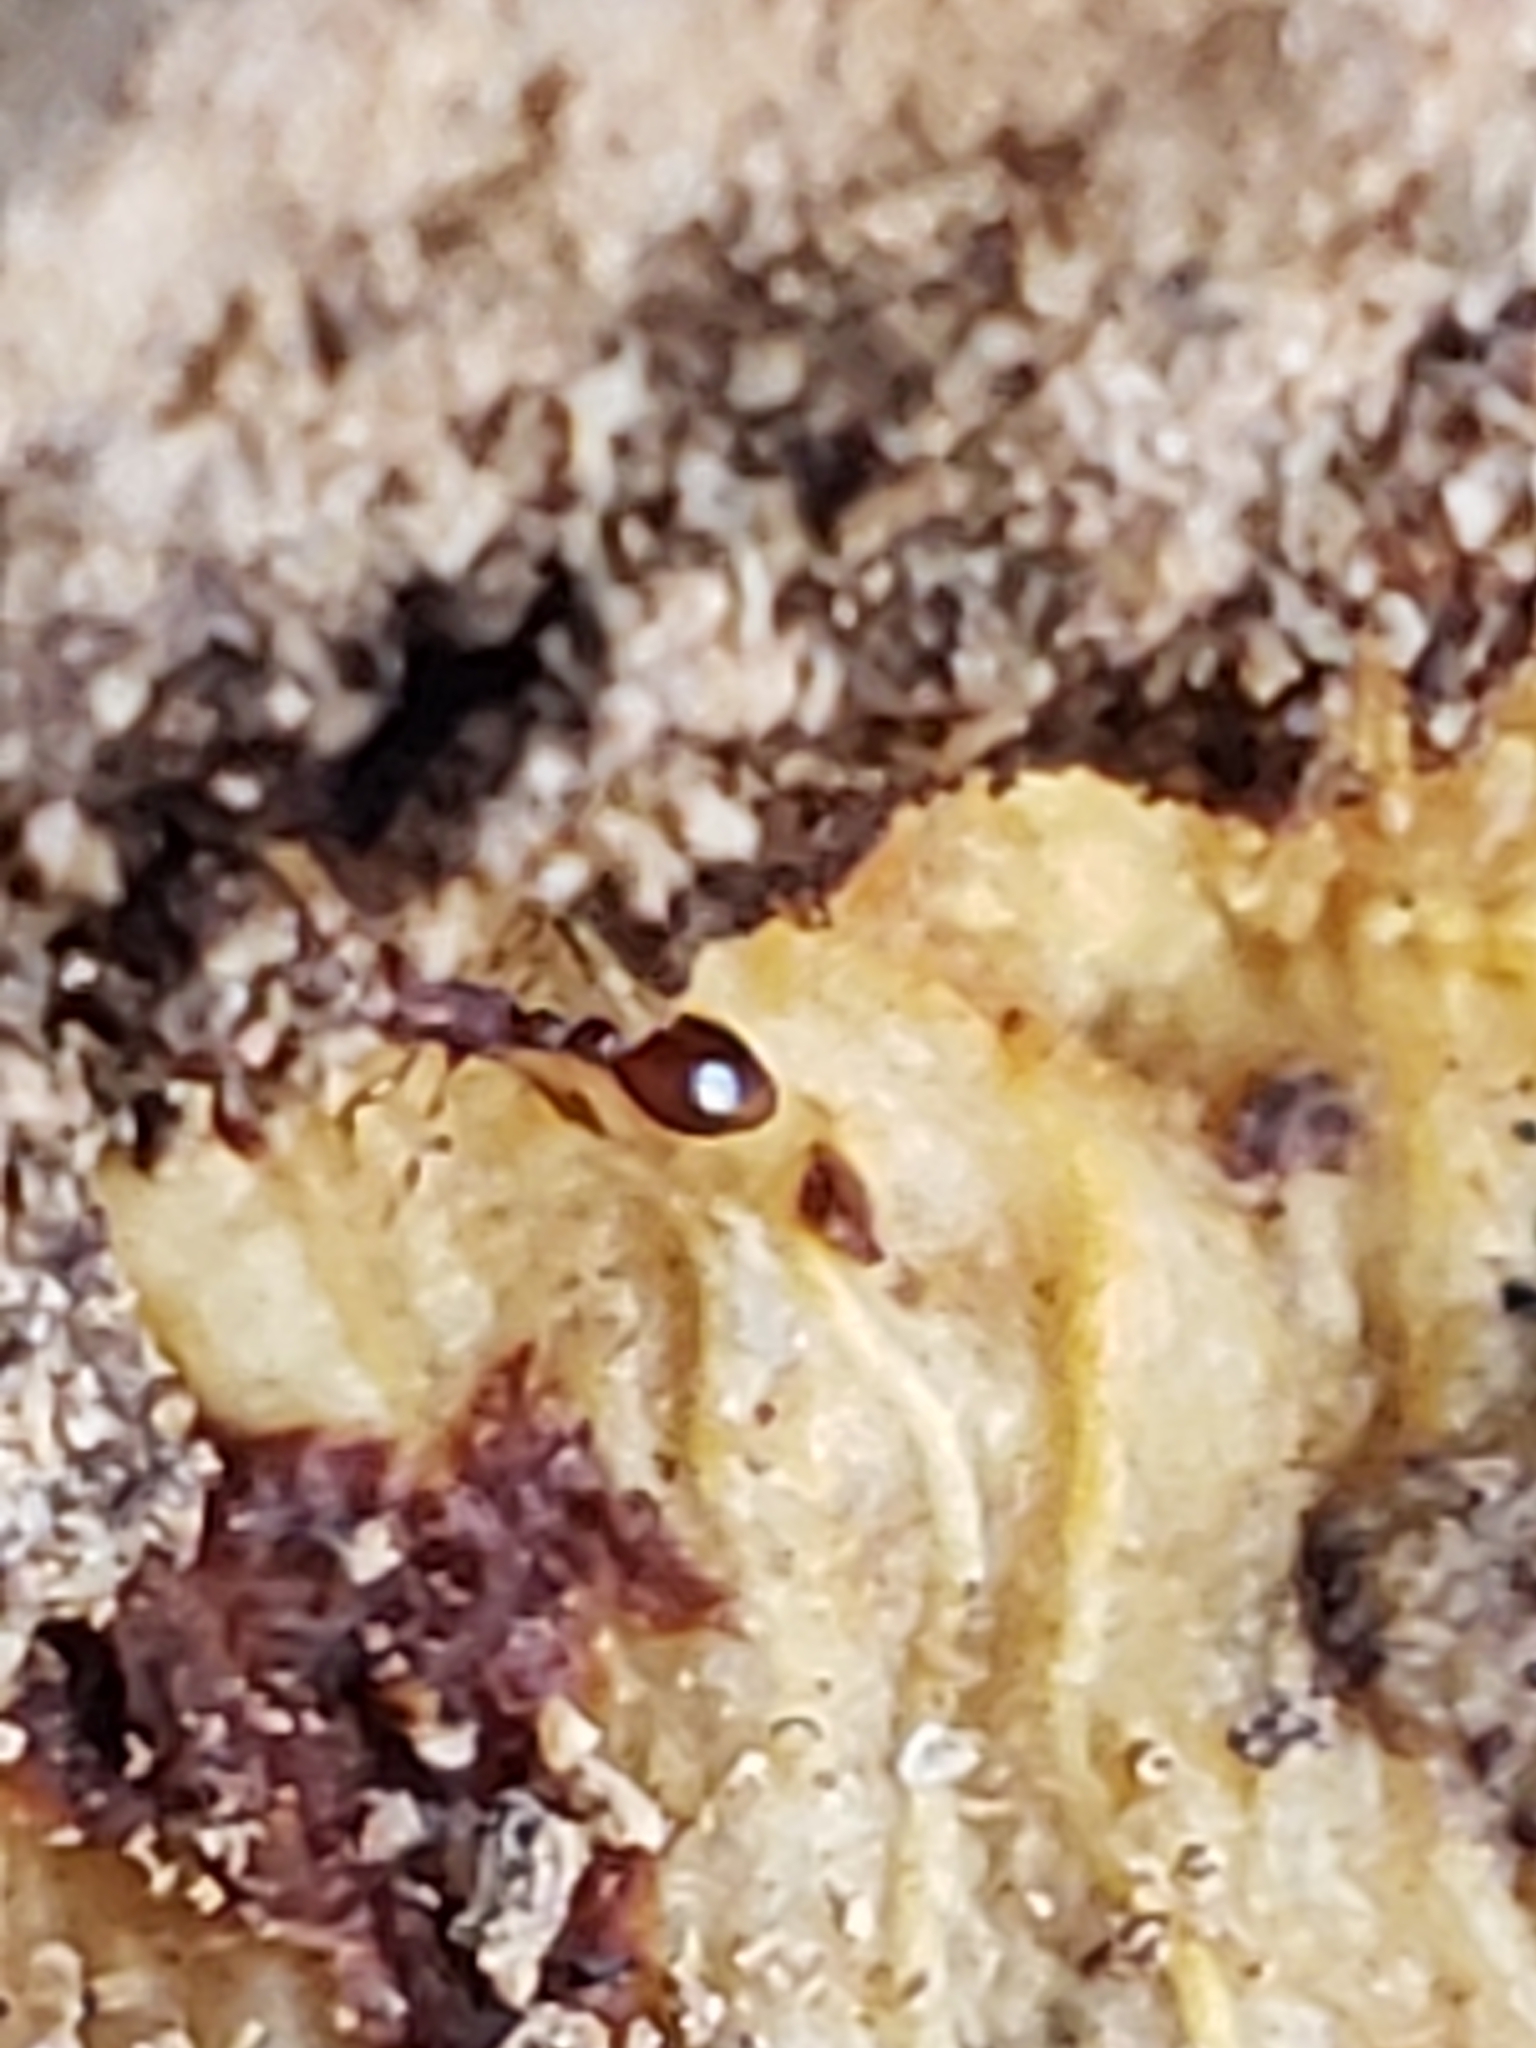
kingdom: Animalia
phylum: Arthropoda
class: Insecta
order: Hymenoptera
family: Formicidae
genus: Vollenhovia
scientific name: Vollenhovia emeryi
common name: Ant
